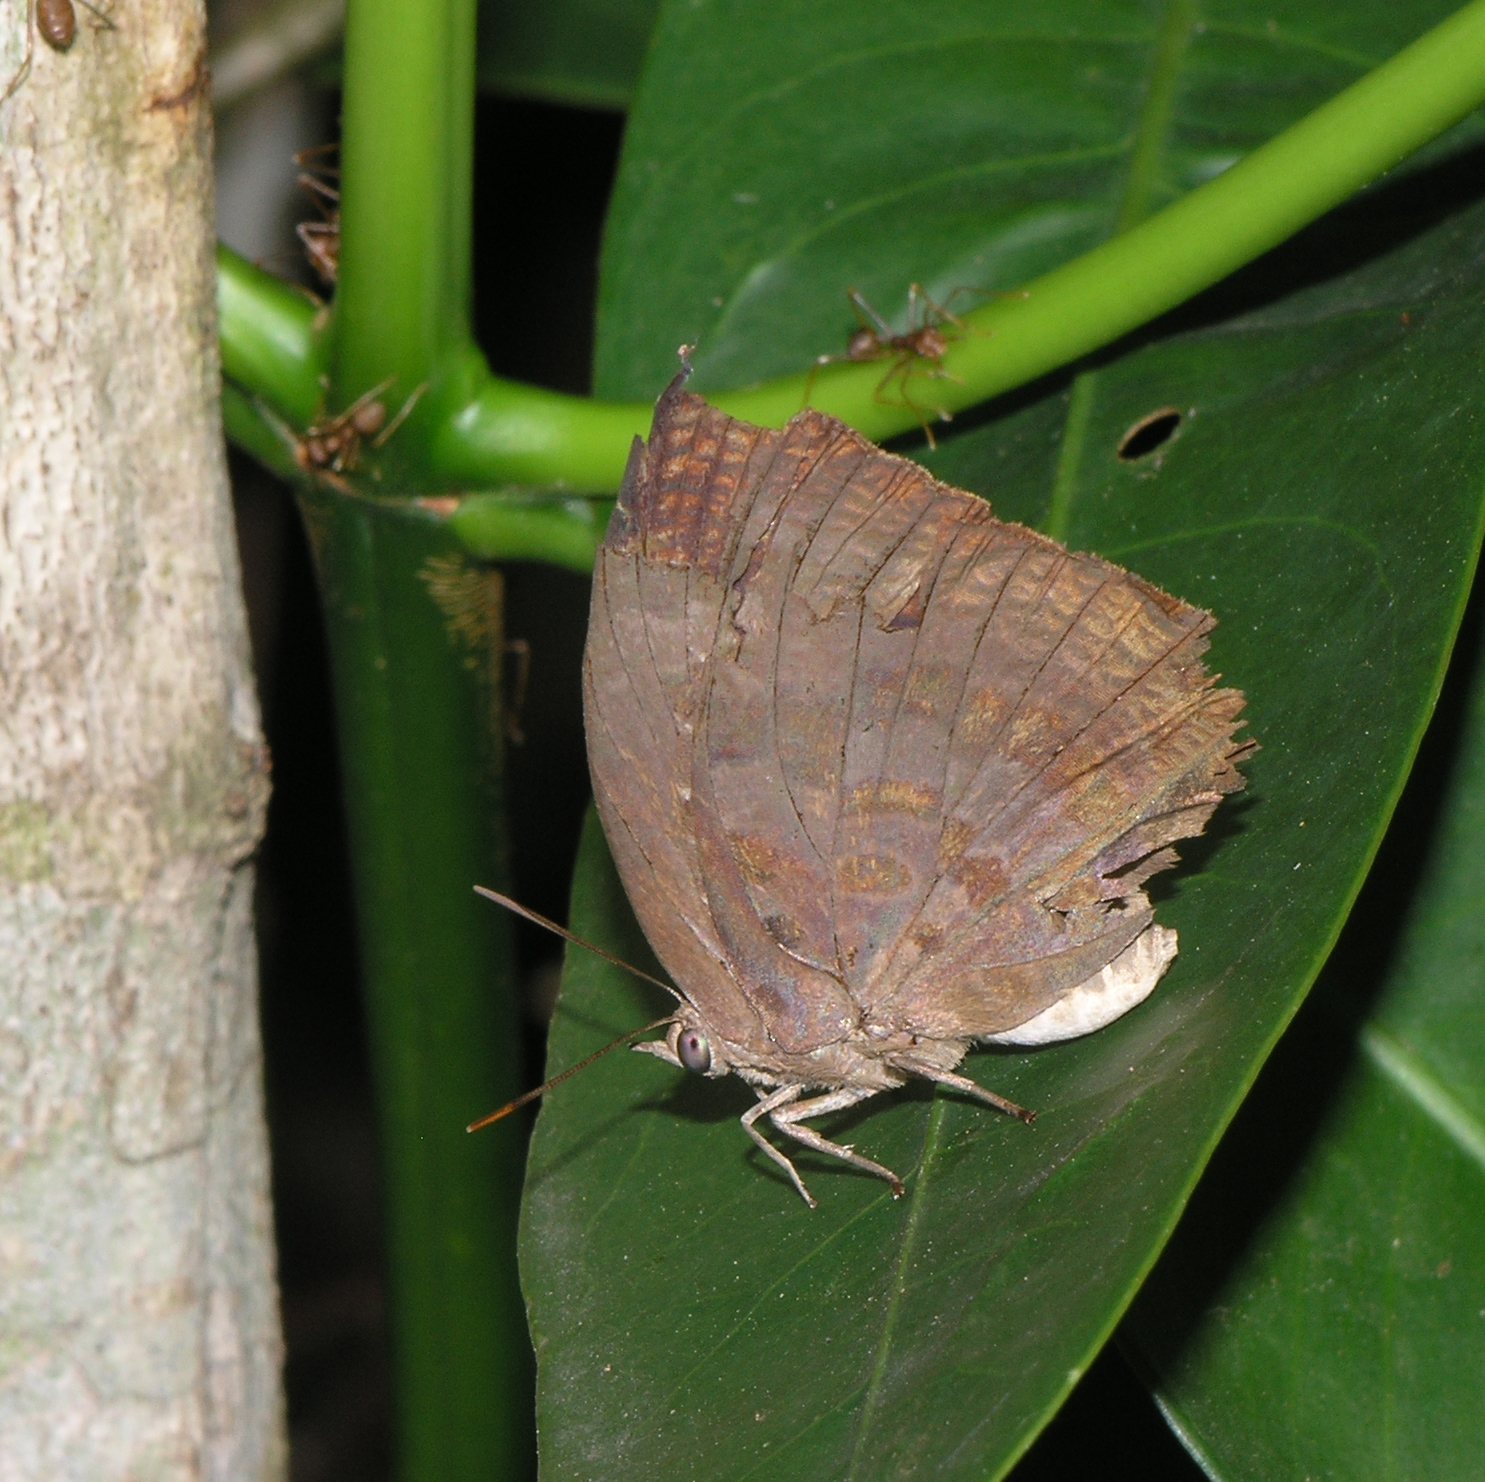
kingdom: Animalia
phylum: Arthropoda
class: Insecta
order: Lepidoptera
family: Lycaenidae
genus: Arhopala
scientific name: Arhopala centaurus
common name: Dull oak-blue
